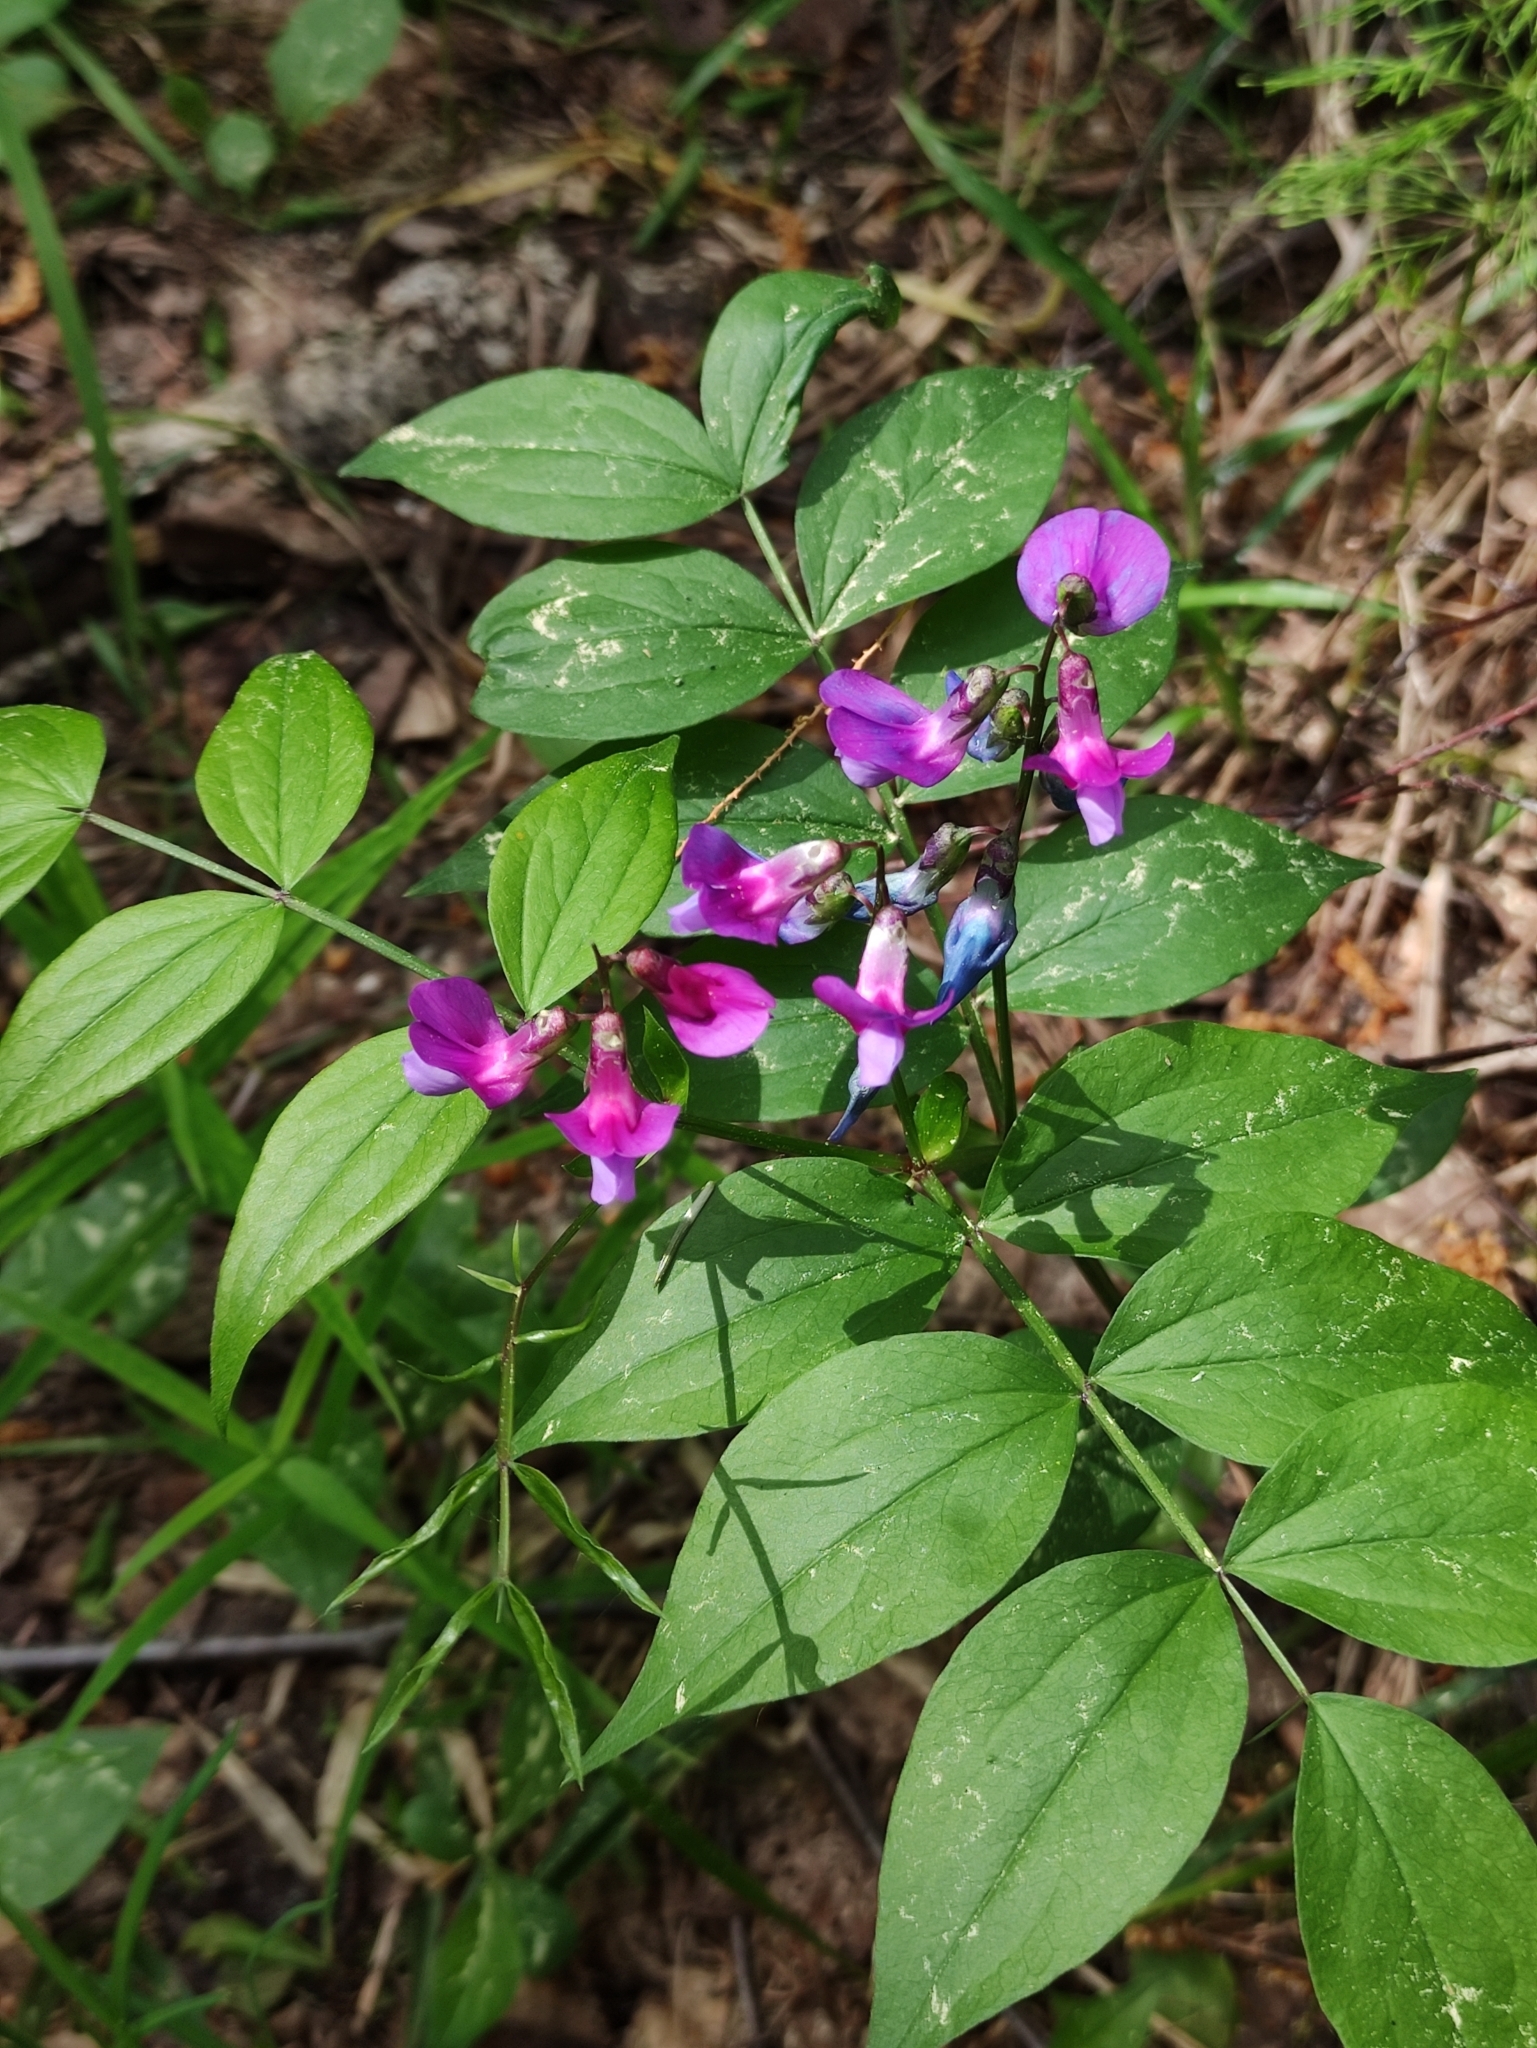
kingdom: Plantae
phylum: Tracheophyta
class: Magnoliopsida
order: Fabales
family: Fabaceae
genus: Lathyrus
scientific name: Lathyrus vernus
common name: Spring pea
